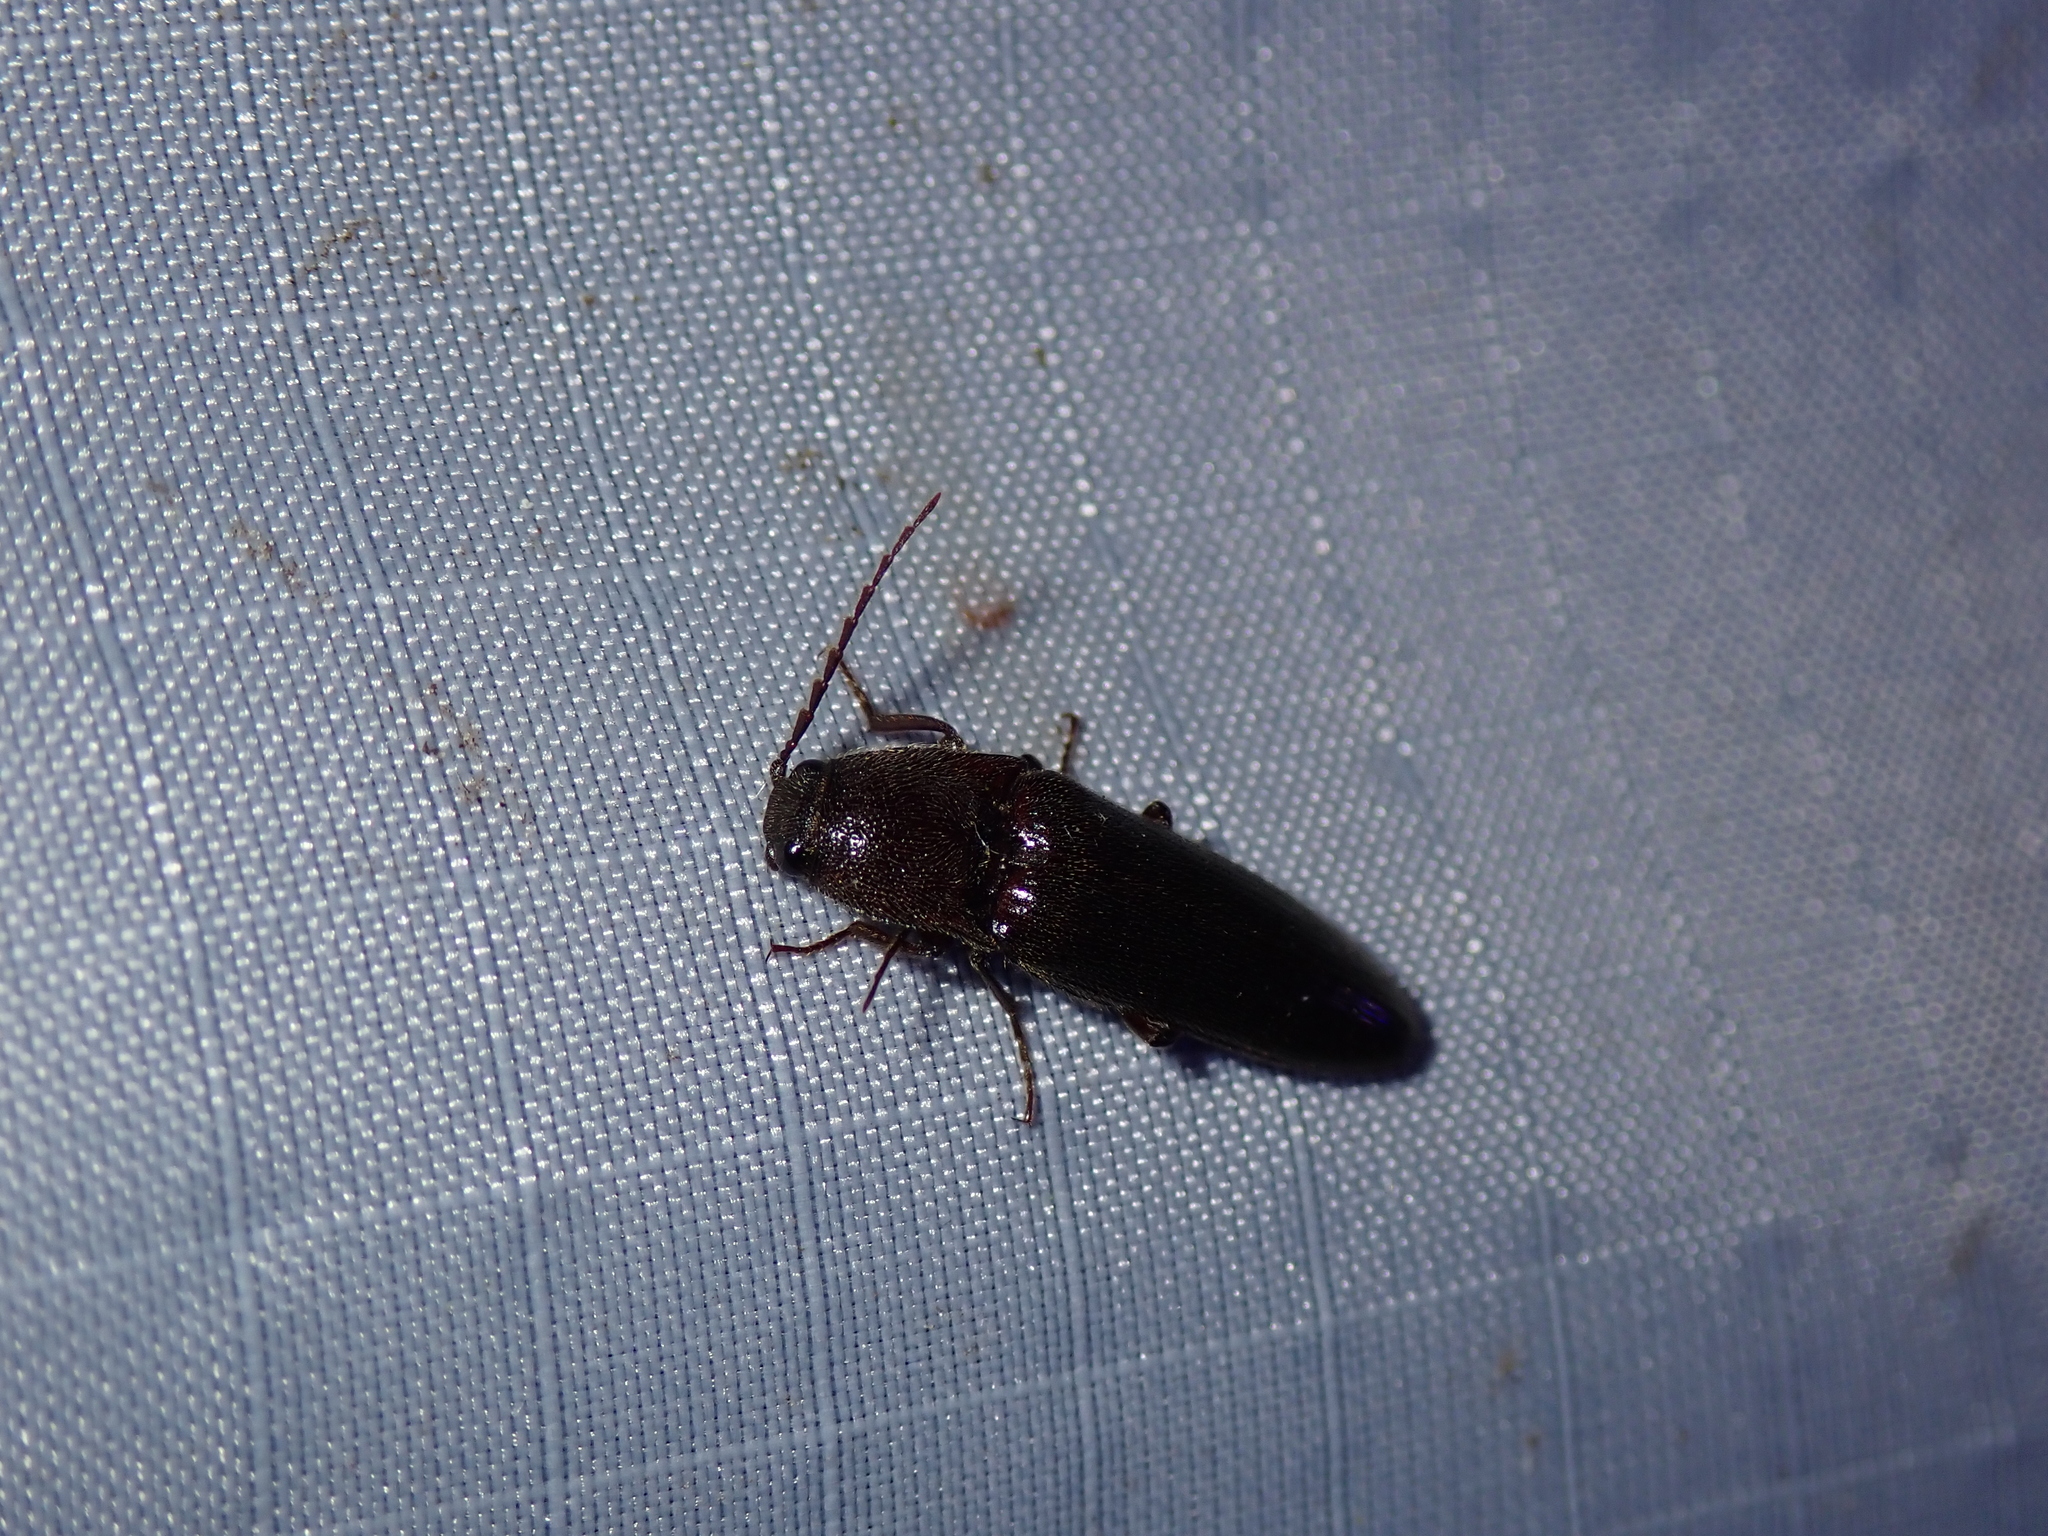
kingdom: Animalia
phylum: Arthropoda
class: Insecta
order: Coleoptera
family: Elateridae
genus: Melanotus
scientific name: Melanotus castanipes
